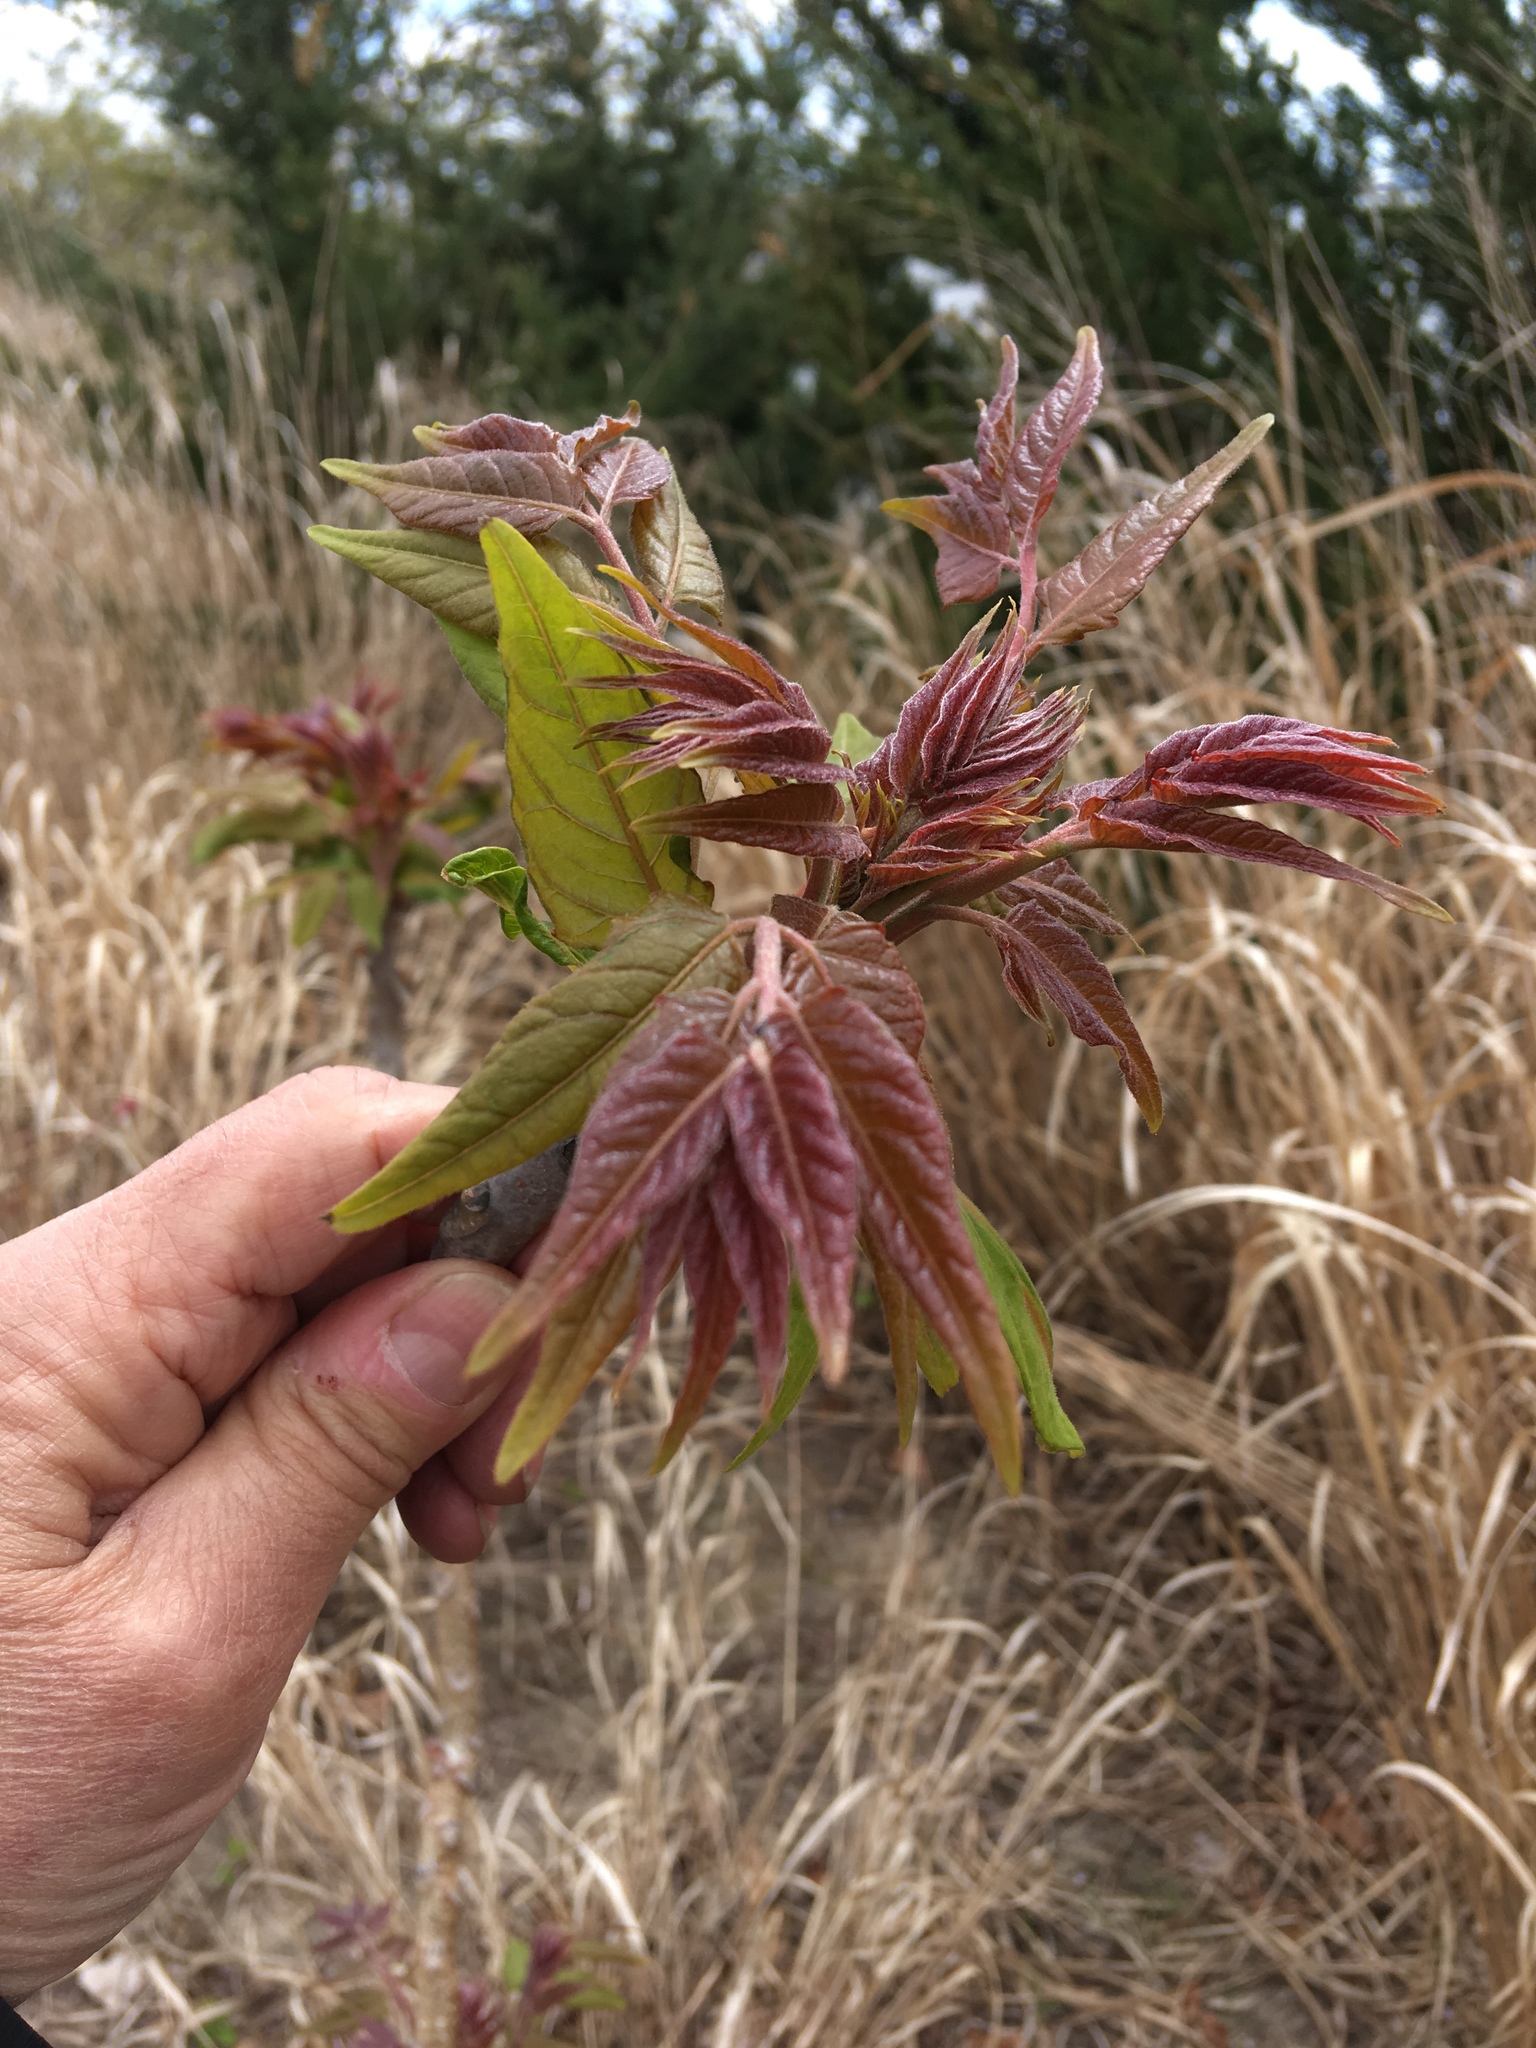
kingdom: Plantae
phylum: Tracheophyta
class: Magnoliopsida
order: Sapindales
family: Simaroubaceae
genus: Ailanthus
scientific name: Ailanthus altissima
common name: Tree-of-heaven
